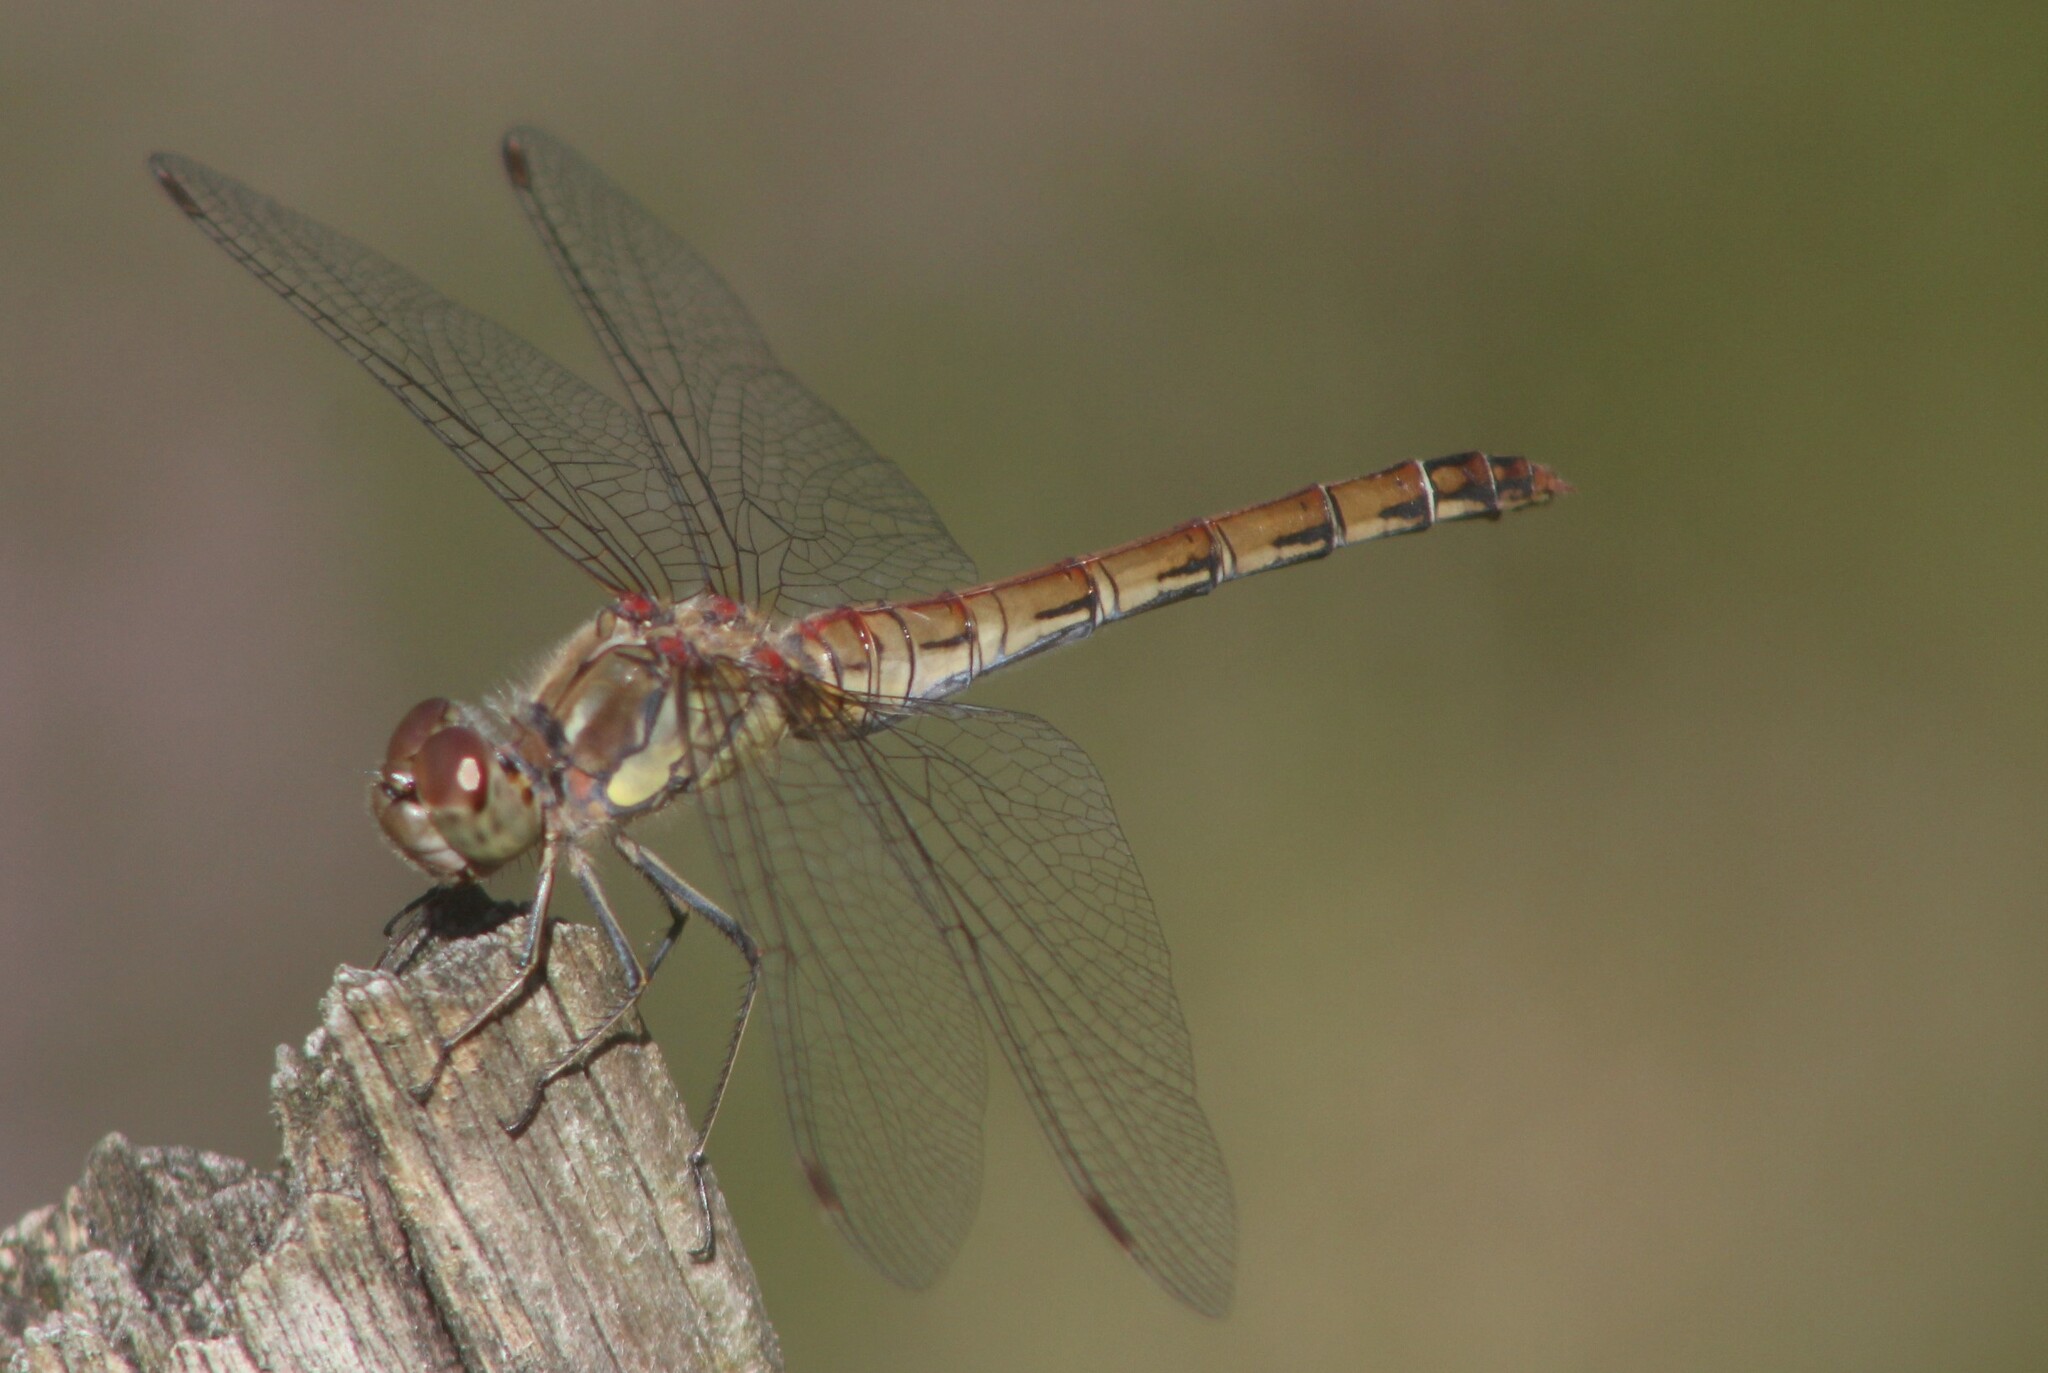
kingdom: Animalia
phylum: Arthropoda
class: Insecta
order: Odonata
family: Libellulidae
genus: Sympetrum
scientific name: Sympetrum striolatum
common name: Common darter
